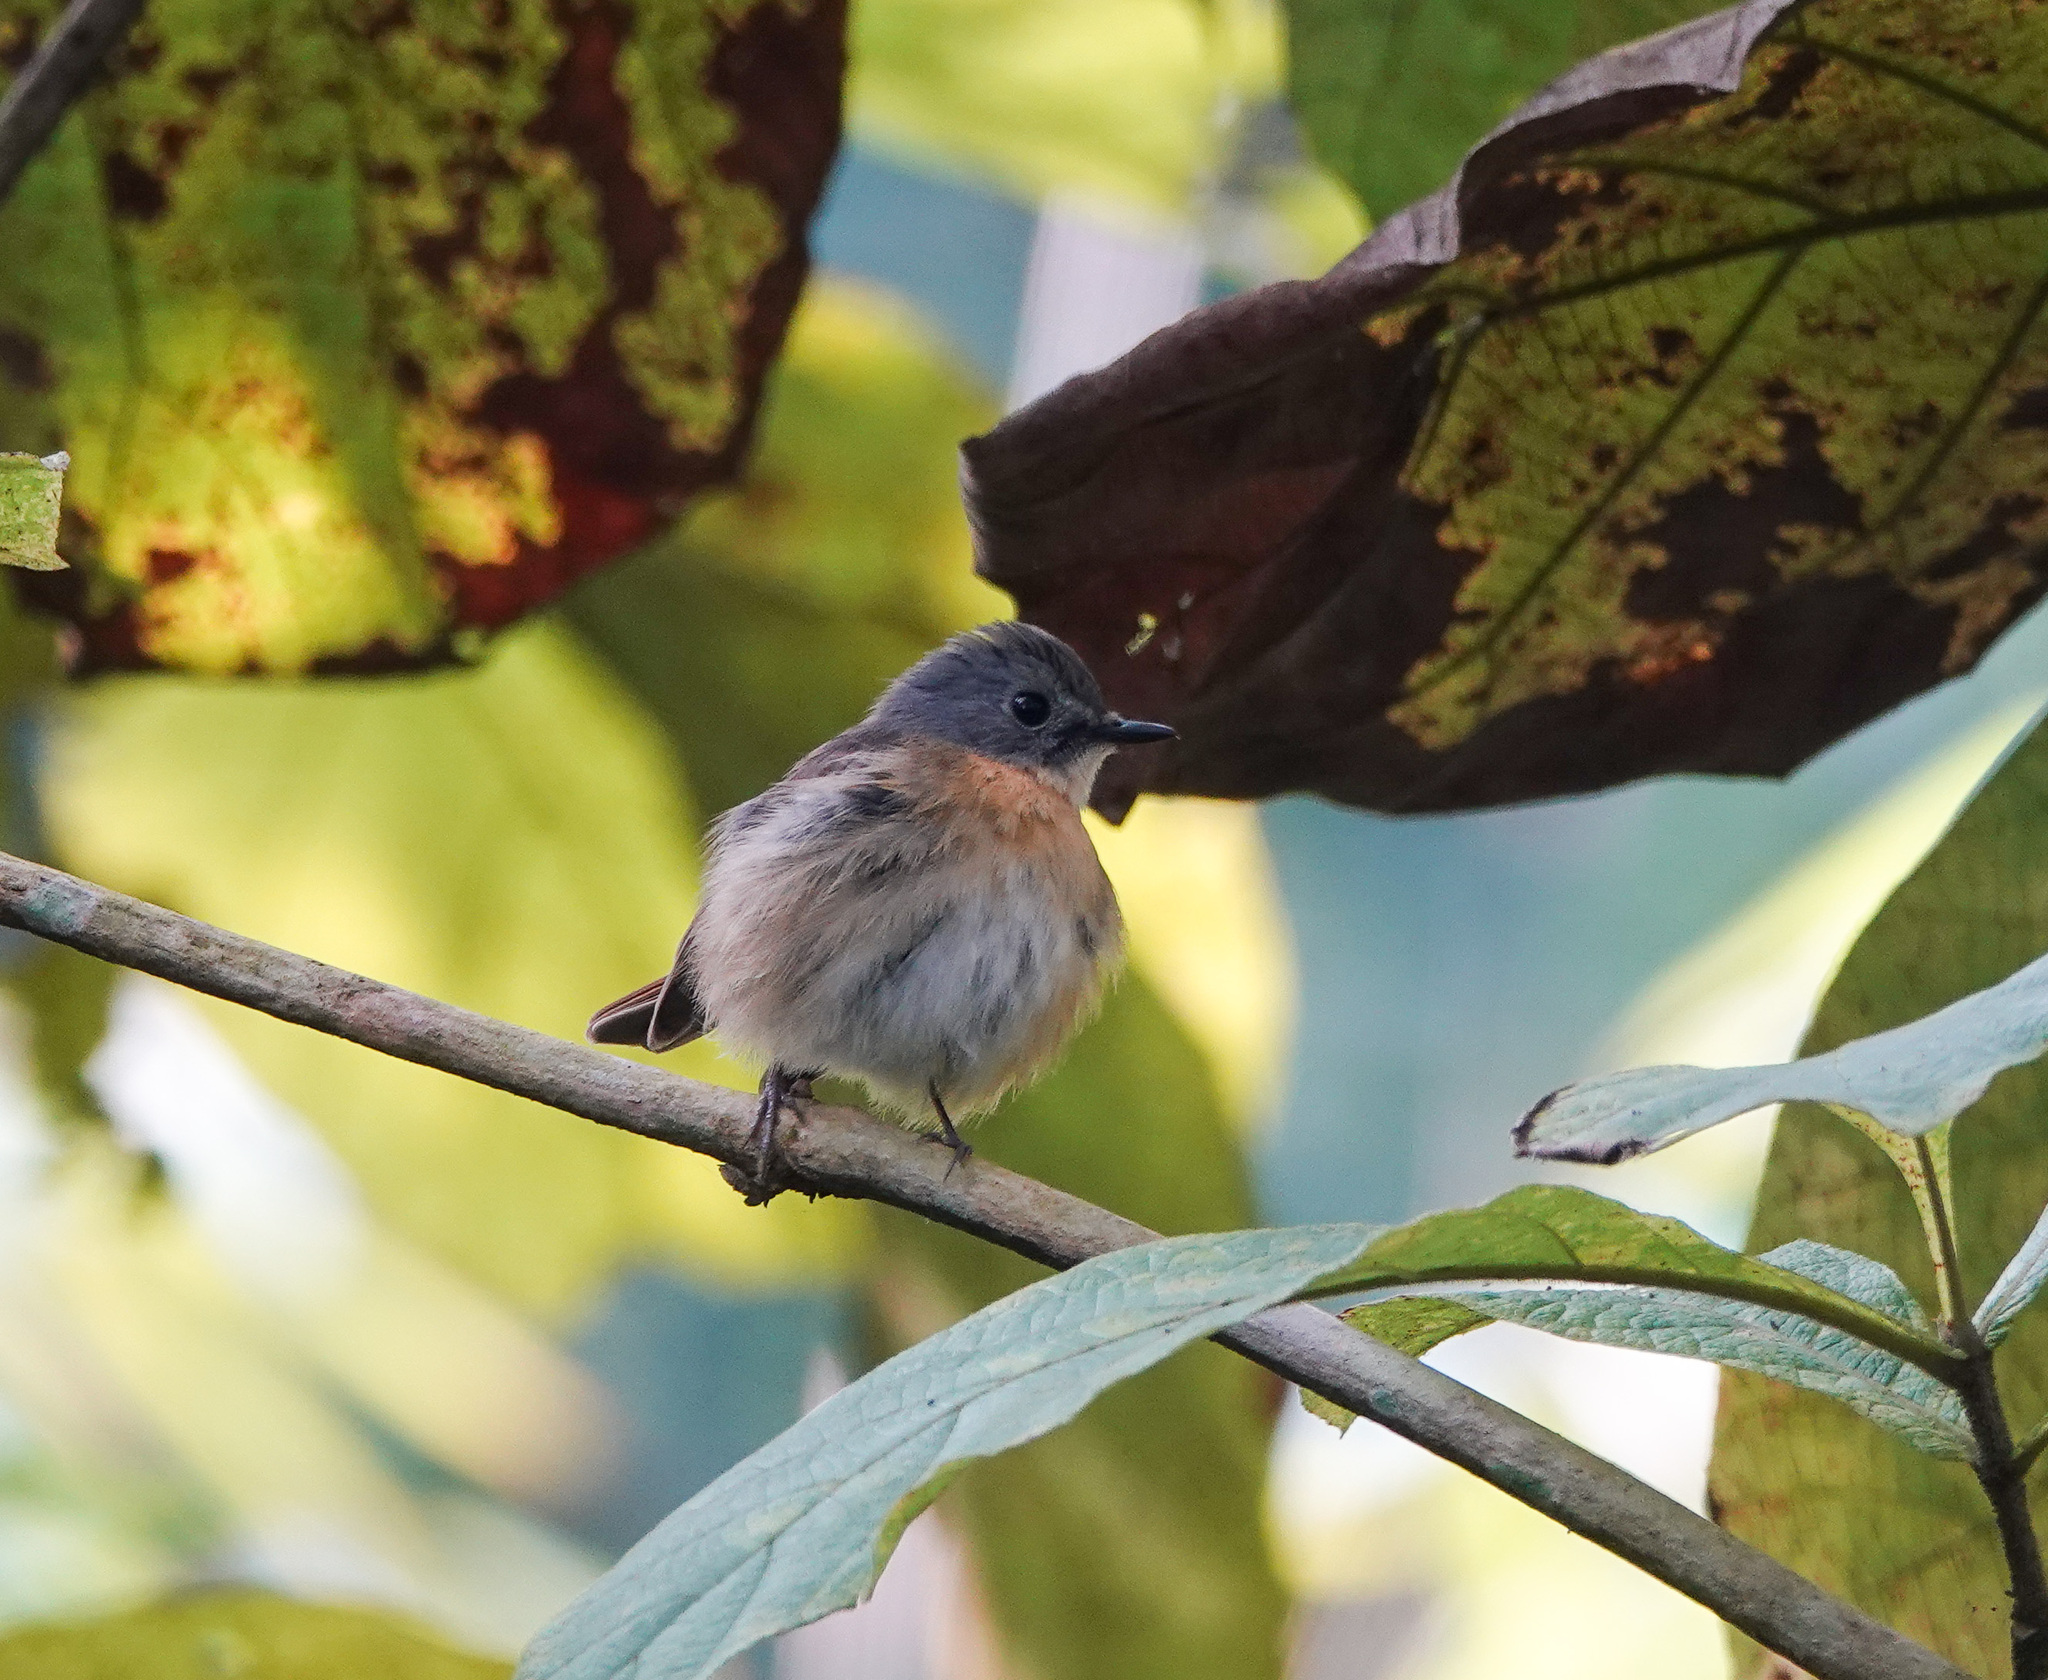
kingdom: Animalia
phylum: Chordata
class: Aves
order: Passeriformes
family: Muscicapidae
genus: Cyornis
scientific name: Cyornis whitei
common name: Hill blue flycatcher
